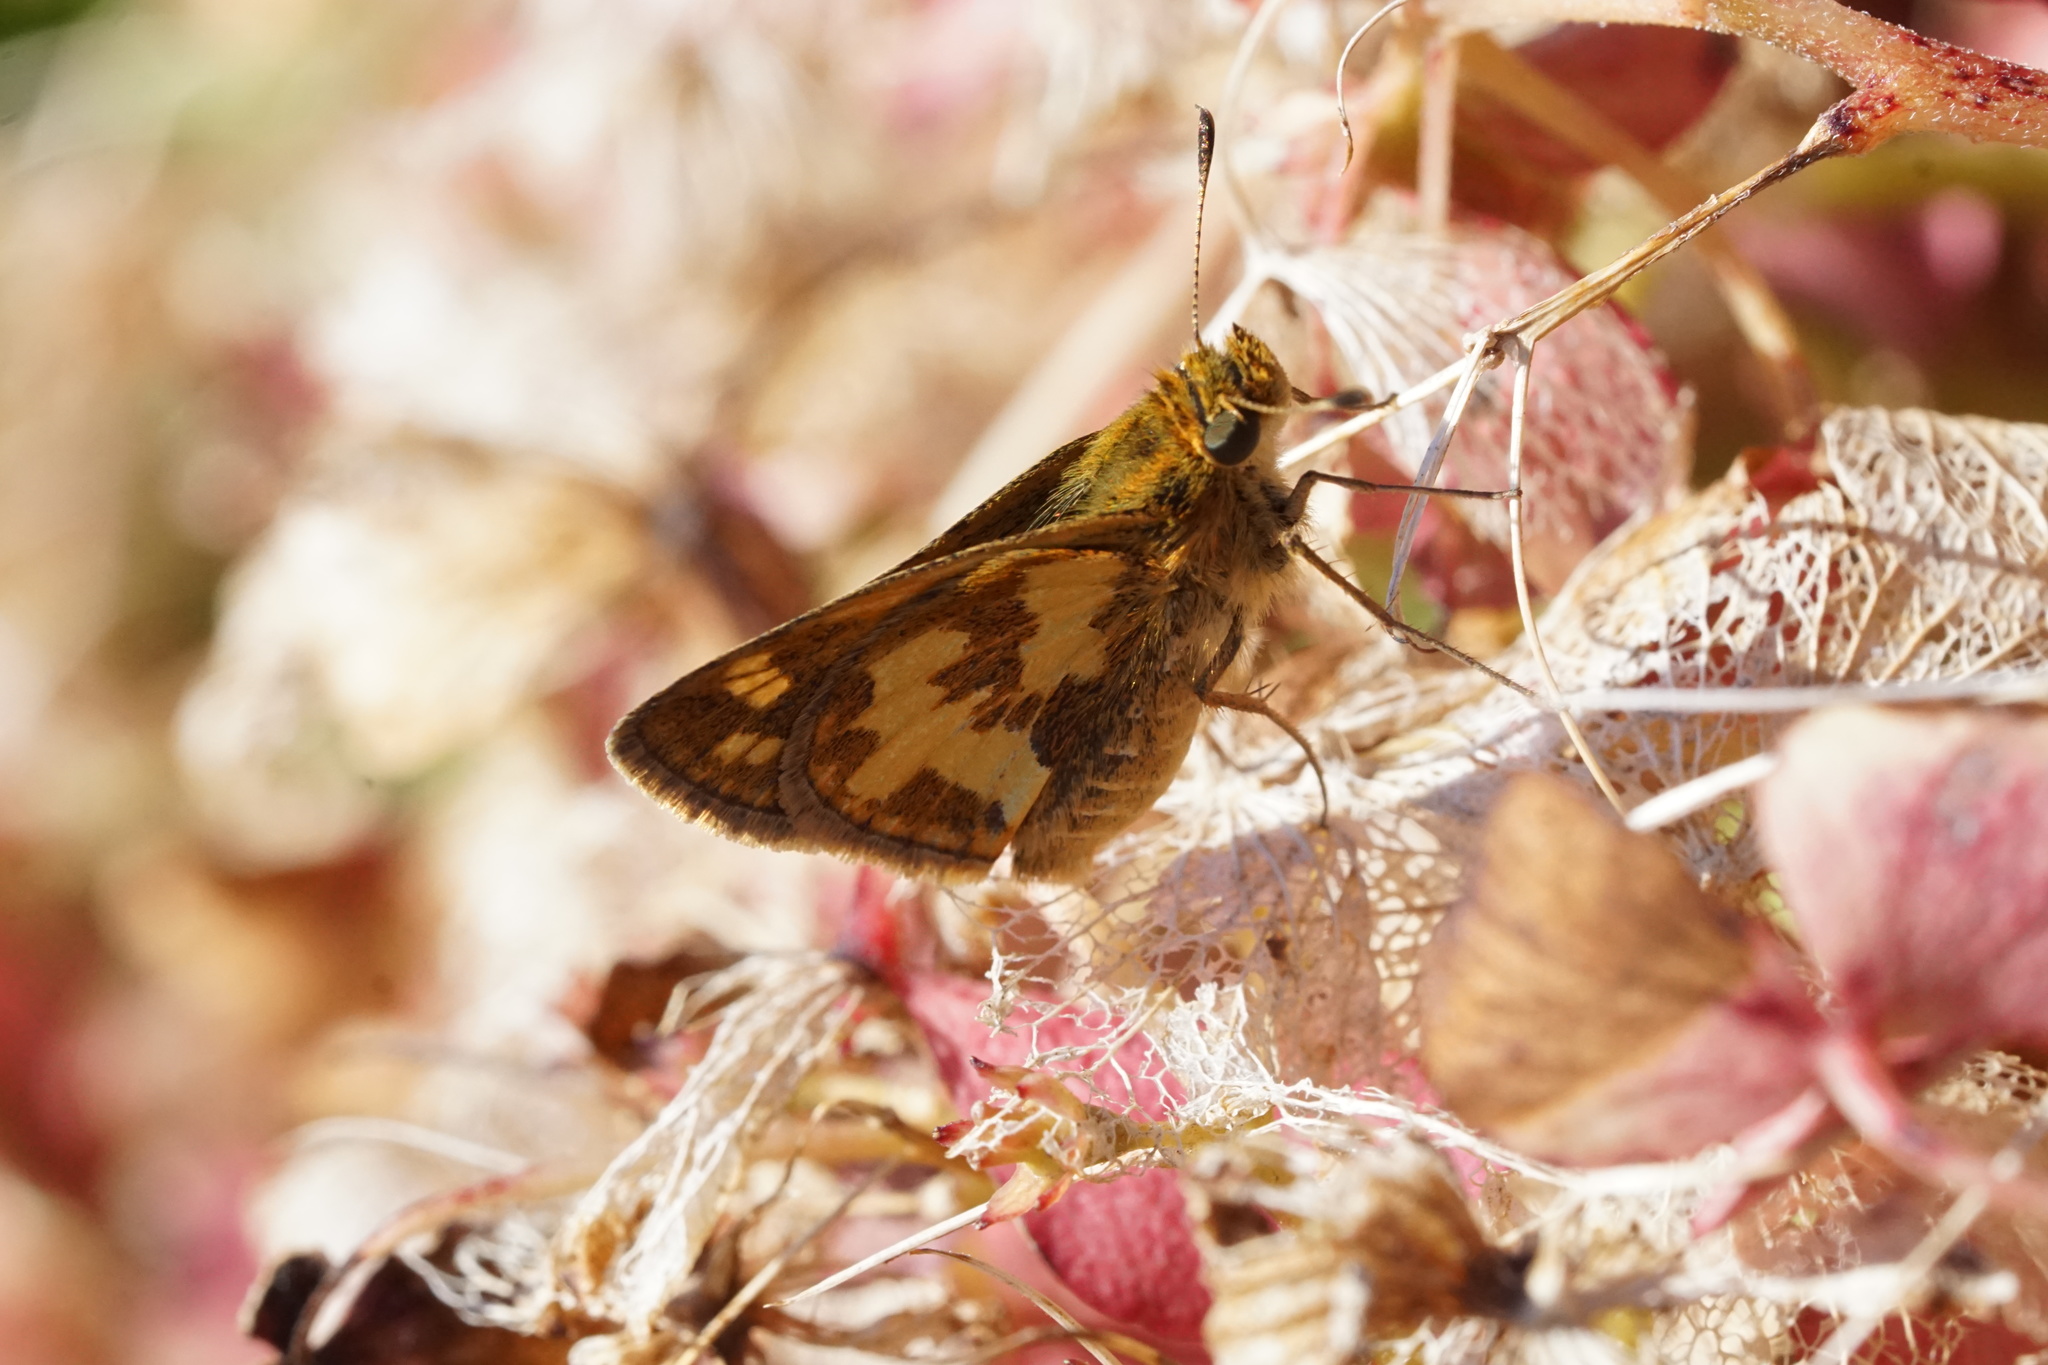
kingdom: Animalia
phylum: Arthropoda
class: Insecta
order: Lepidoptera
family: Hesperiidae
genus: Polites
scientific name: Polites coras
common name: Peck's skipper
